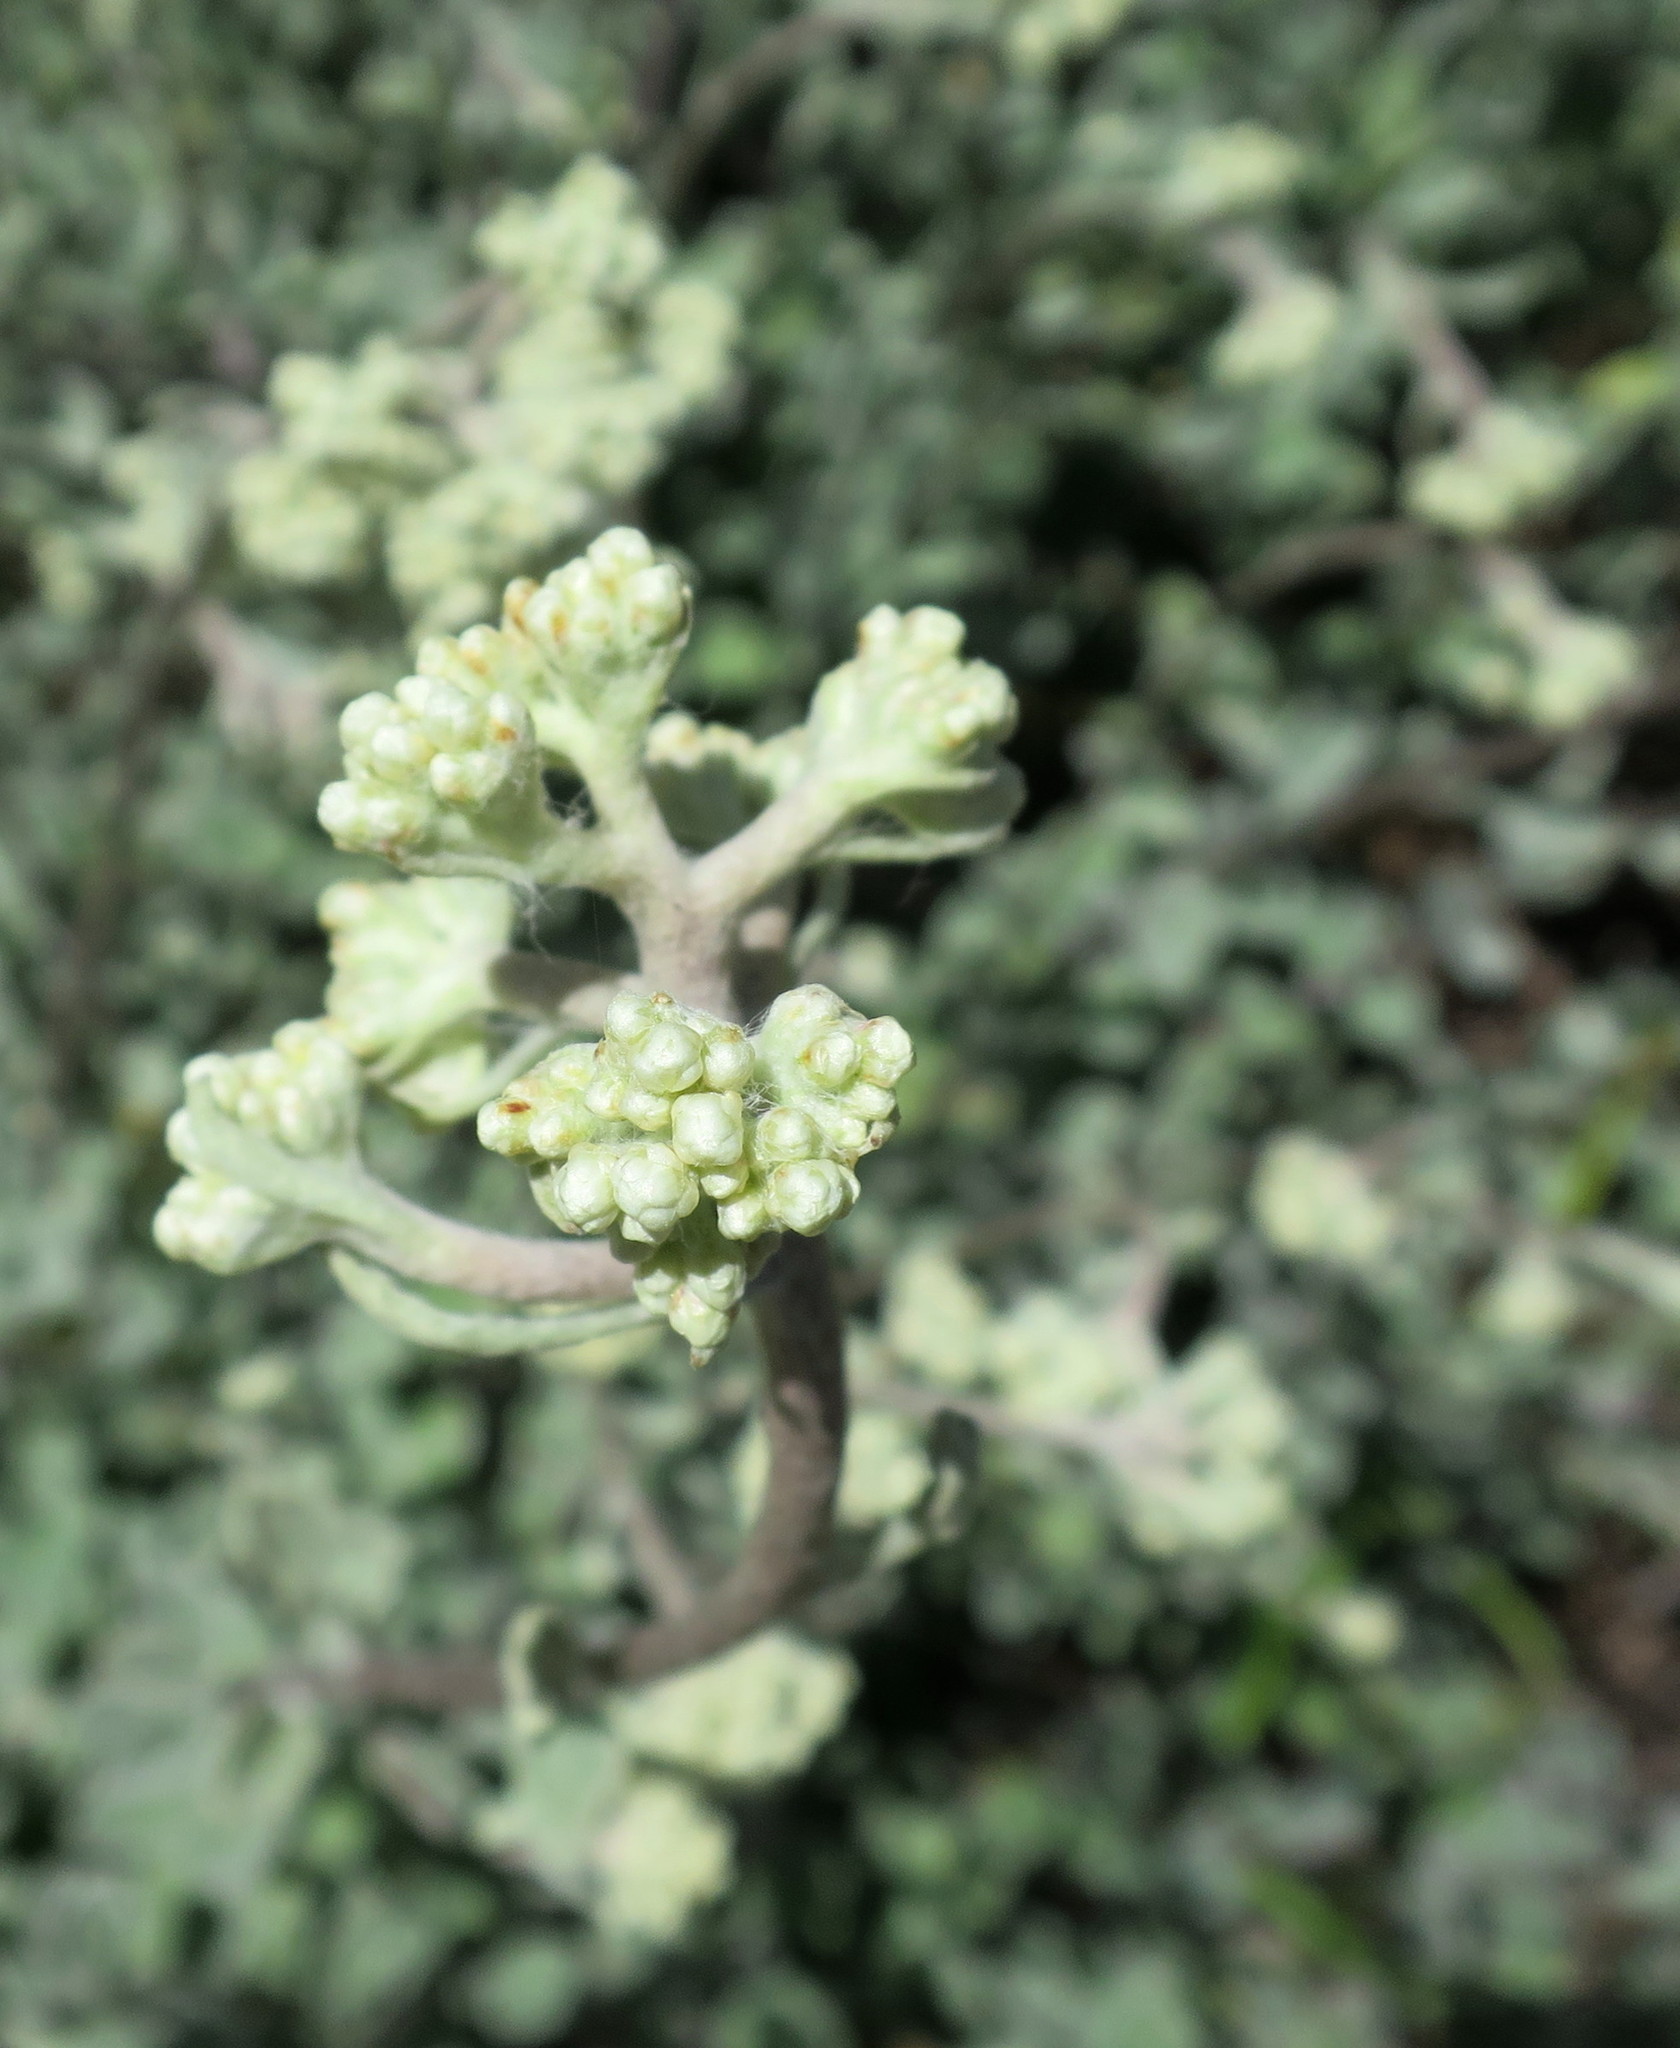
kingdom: Plantae
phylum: Tracheophyta
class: Magnoliopsida
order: Asterales
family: Asteraceae
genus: Helichrysum
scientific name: Helichrysum petiolare
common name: Licorice-plant
